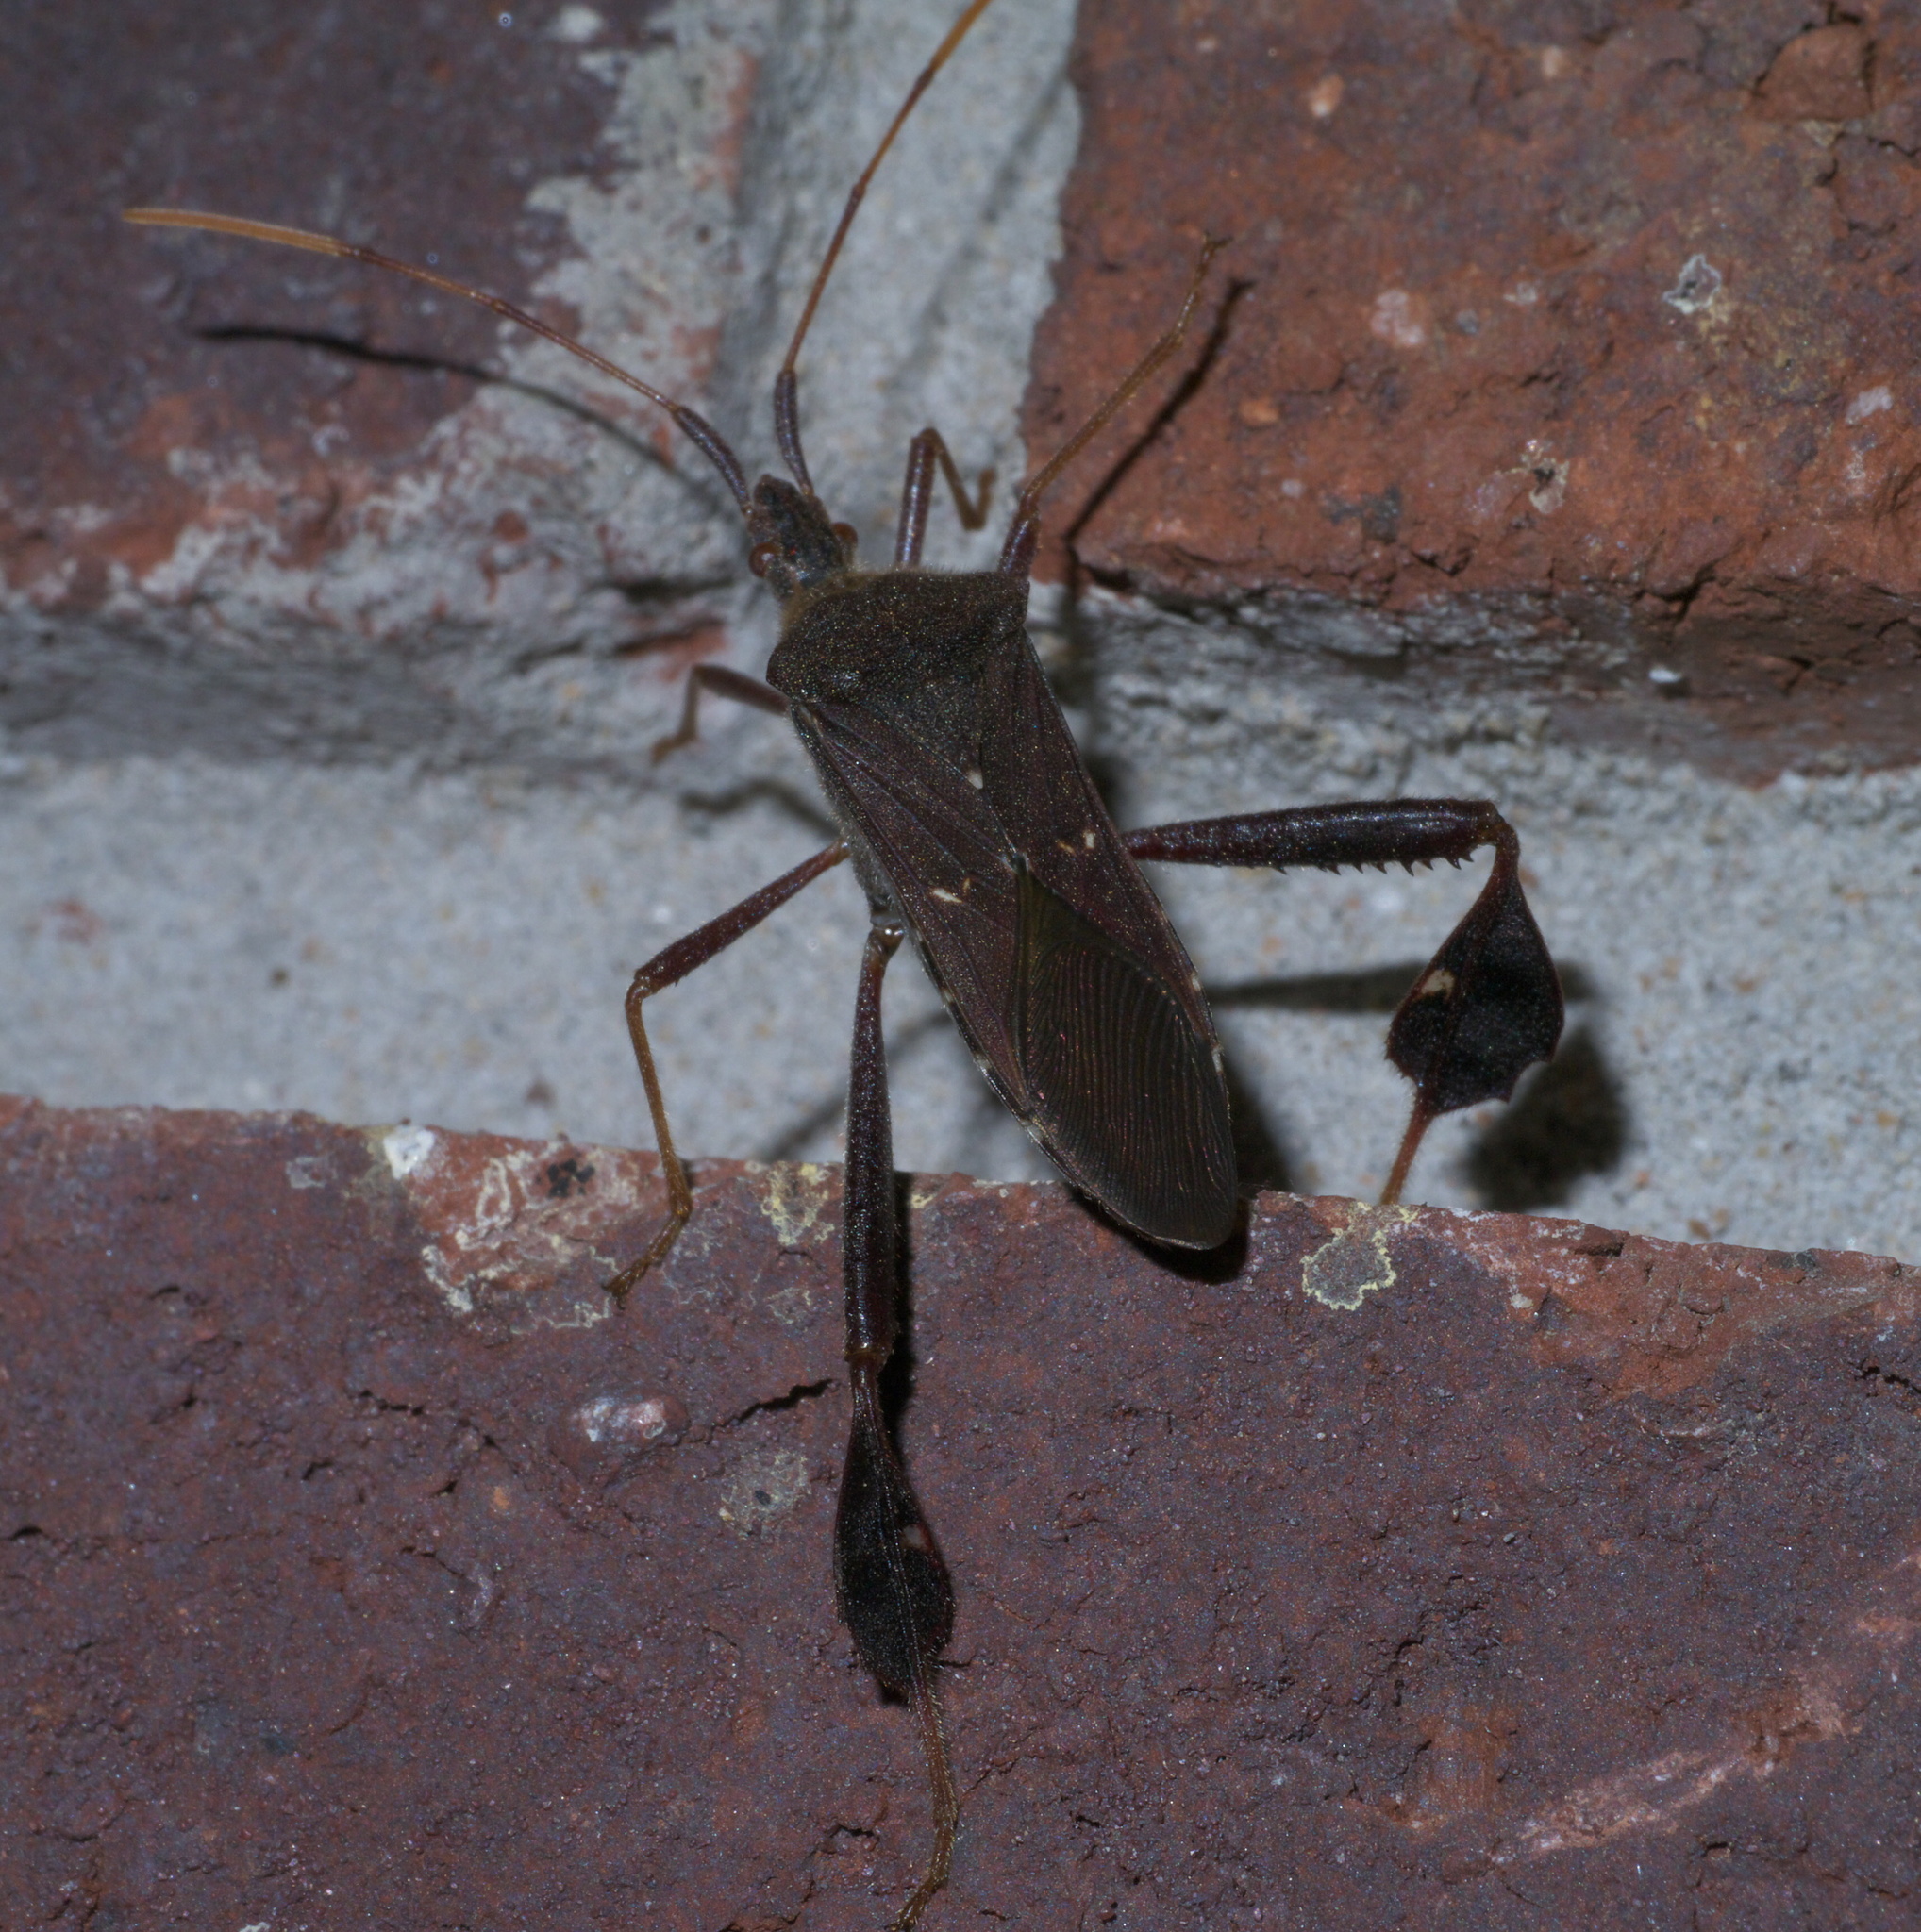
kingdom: Animalia
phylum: Arthropoda
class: Insecta
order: Hemiptera
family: Coreidae
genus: Leptoglossus
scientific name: Leptoglossus oppositus
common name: Northern leaf-footed bug
